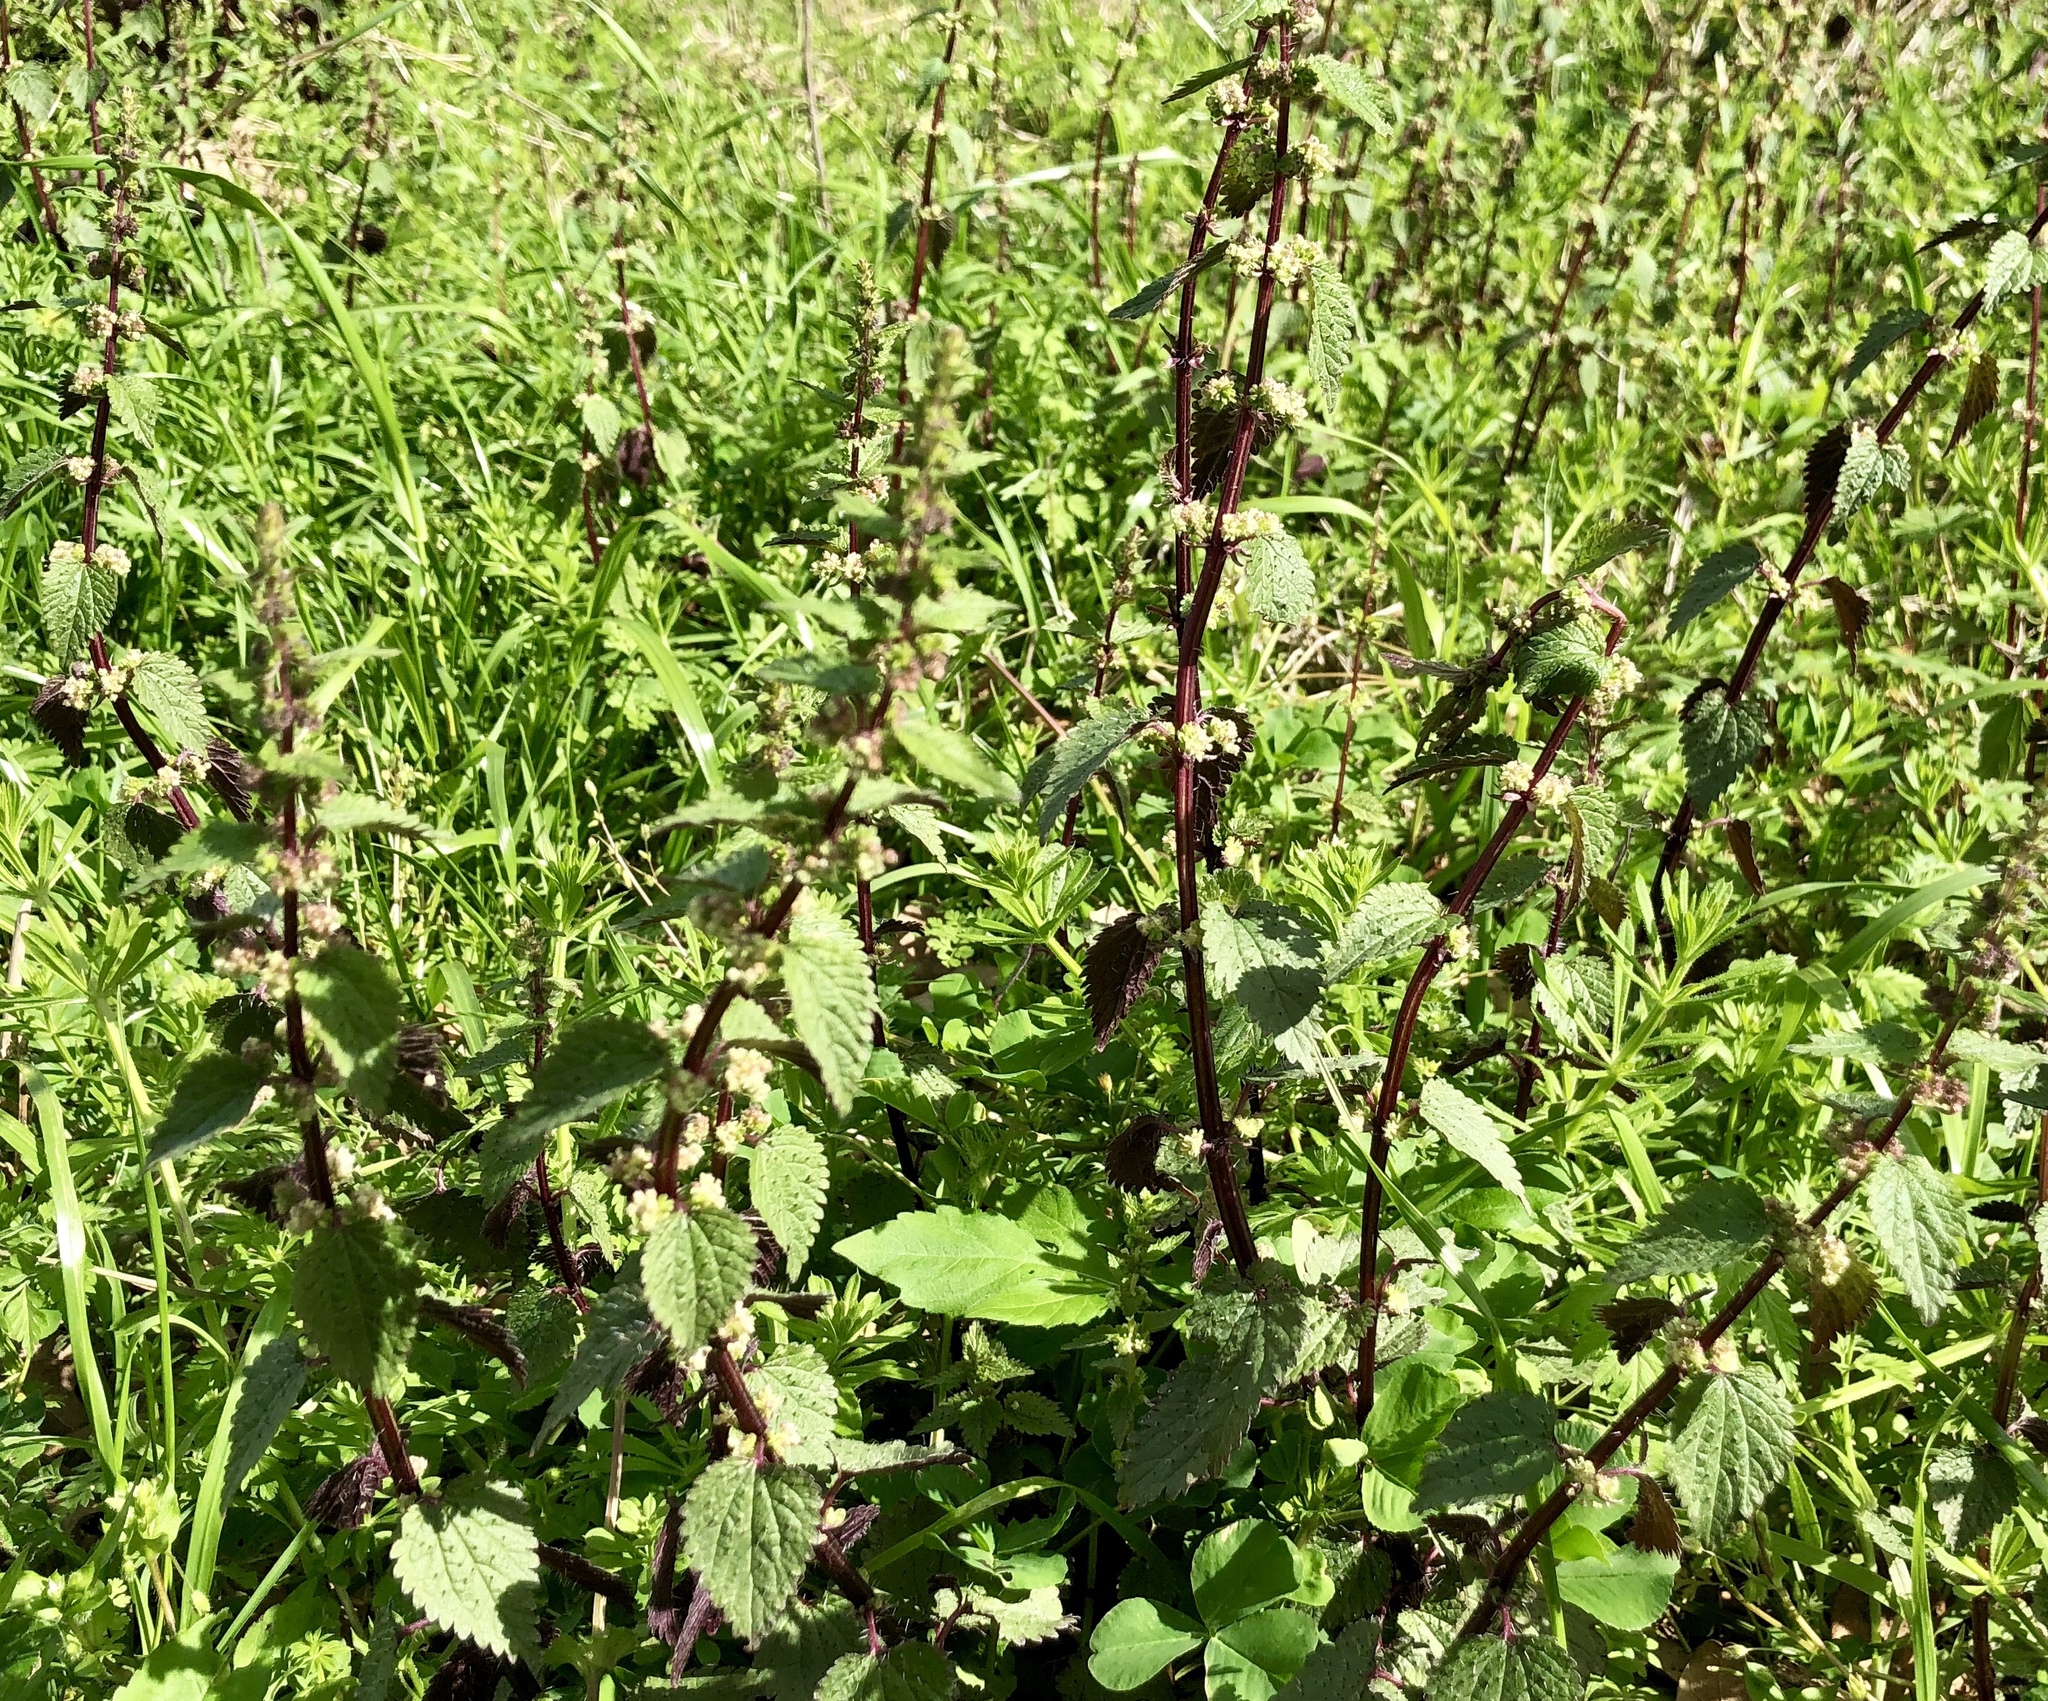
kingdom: Plantae
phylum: Tracheophyta
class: Magnoliopsida
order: Rosales
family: Urticaceae
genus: Urtica
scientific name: Urtica chamaedryoides
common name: Heart-leaf nettle
